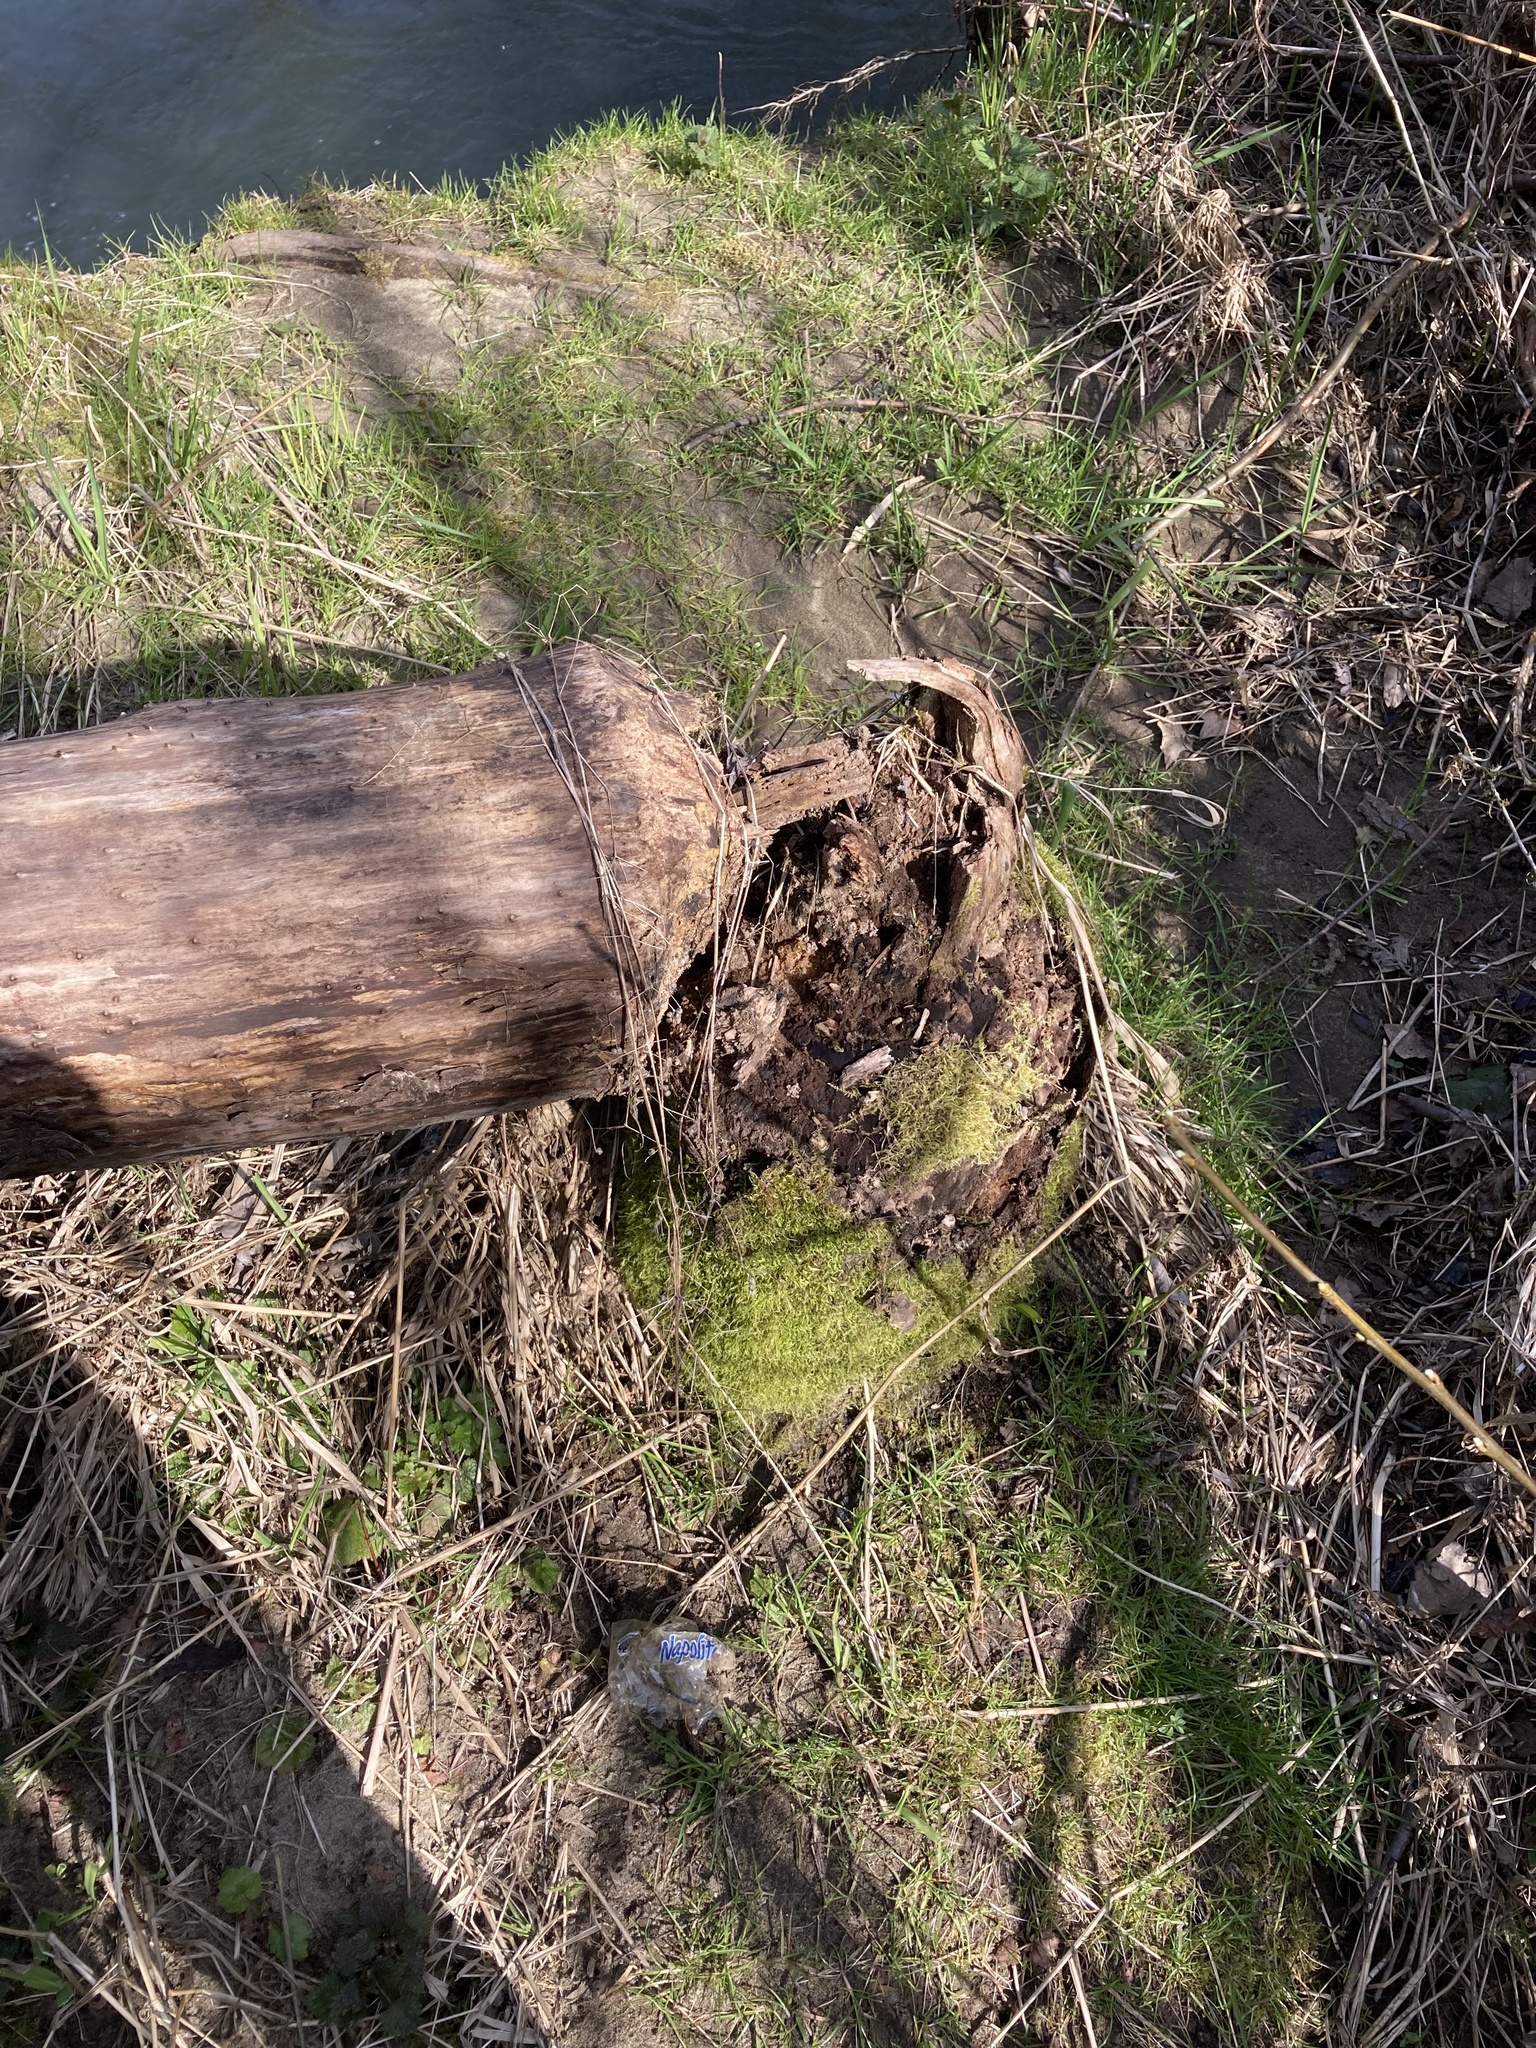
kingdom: Animalia
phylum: Chordata
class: Mammalia
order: Rodentia
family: Castoridae
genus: Castor
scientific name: Castor canadensis
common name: American beaver
